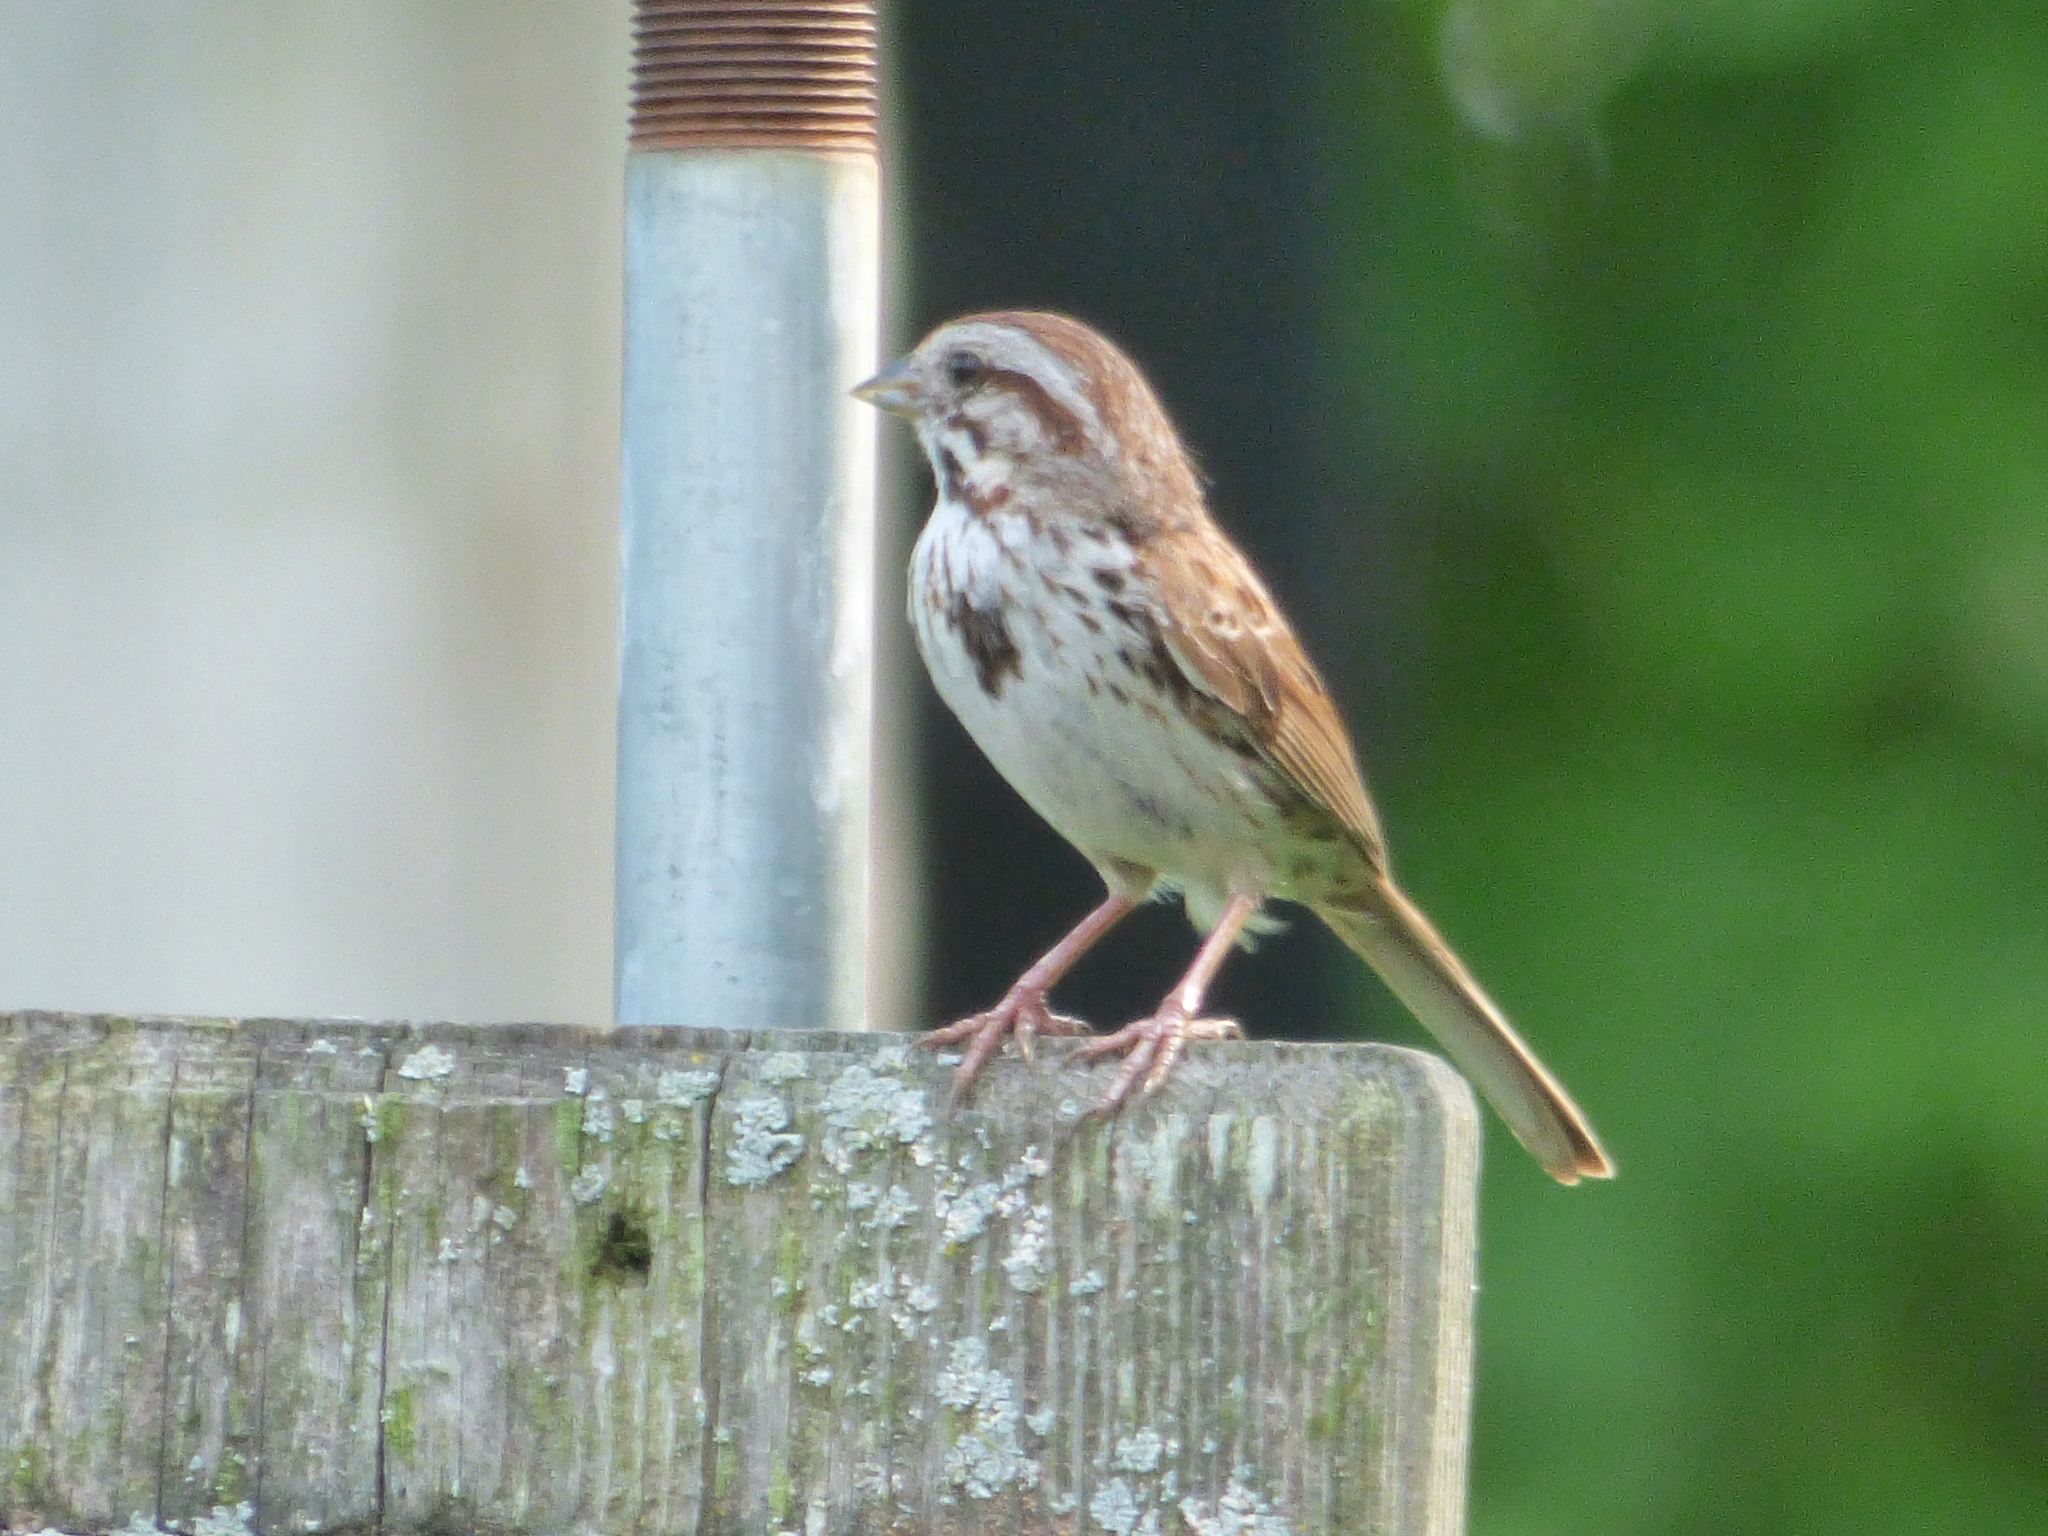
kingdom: Animalia
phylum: Chordata
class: Aves
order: Passeriformes
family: Passerellidae
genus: Melospiza
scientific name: Melospiza melodia
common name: Song sparrow
